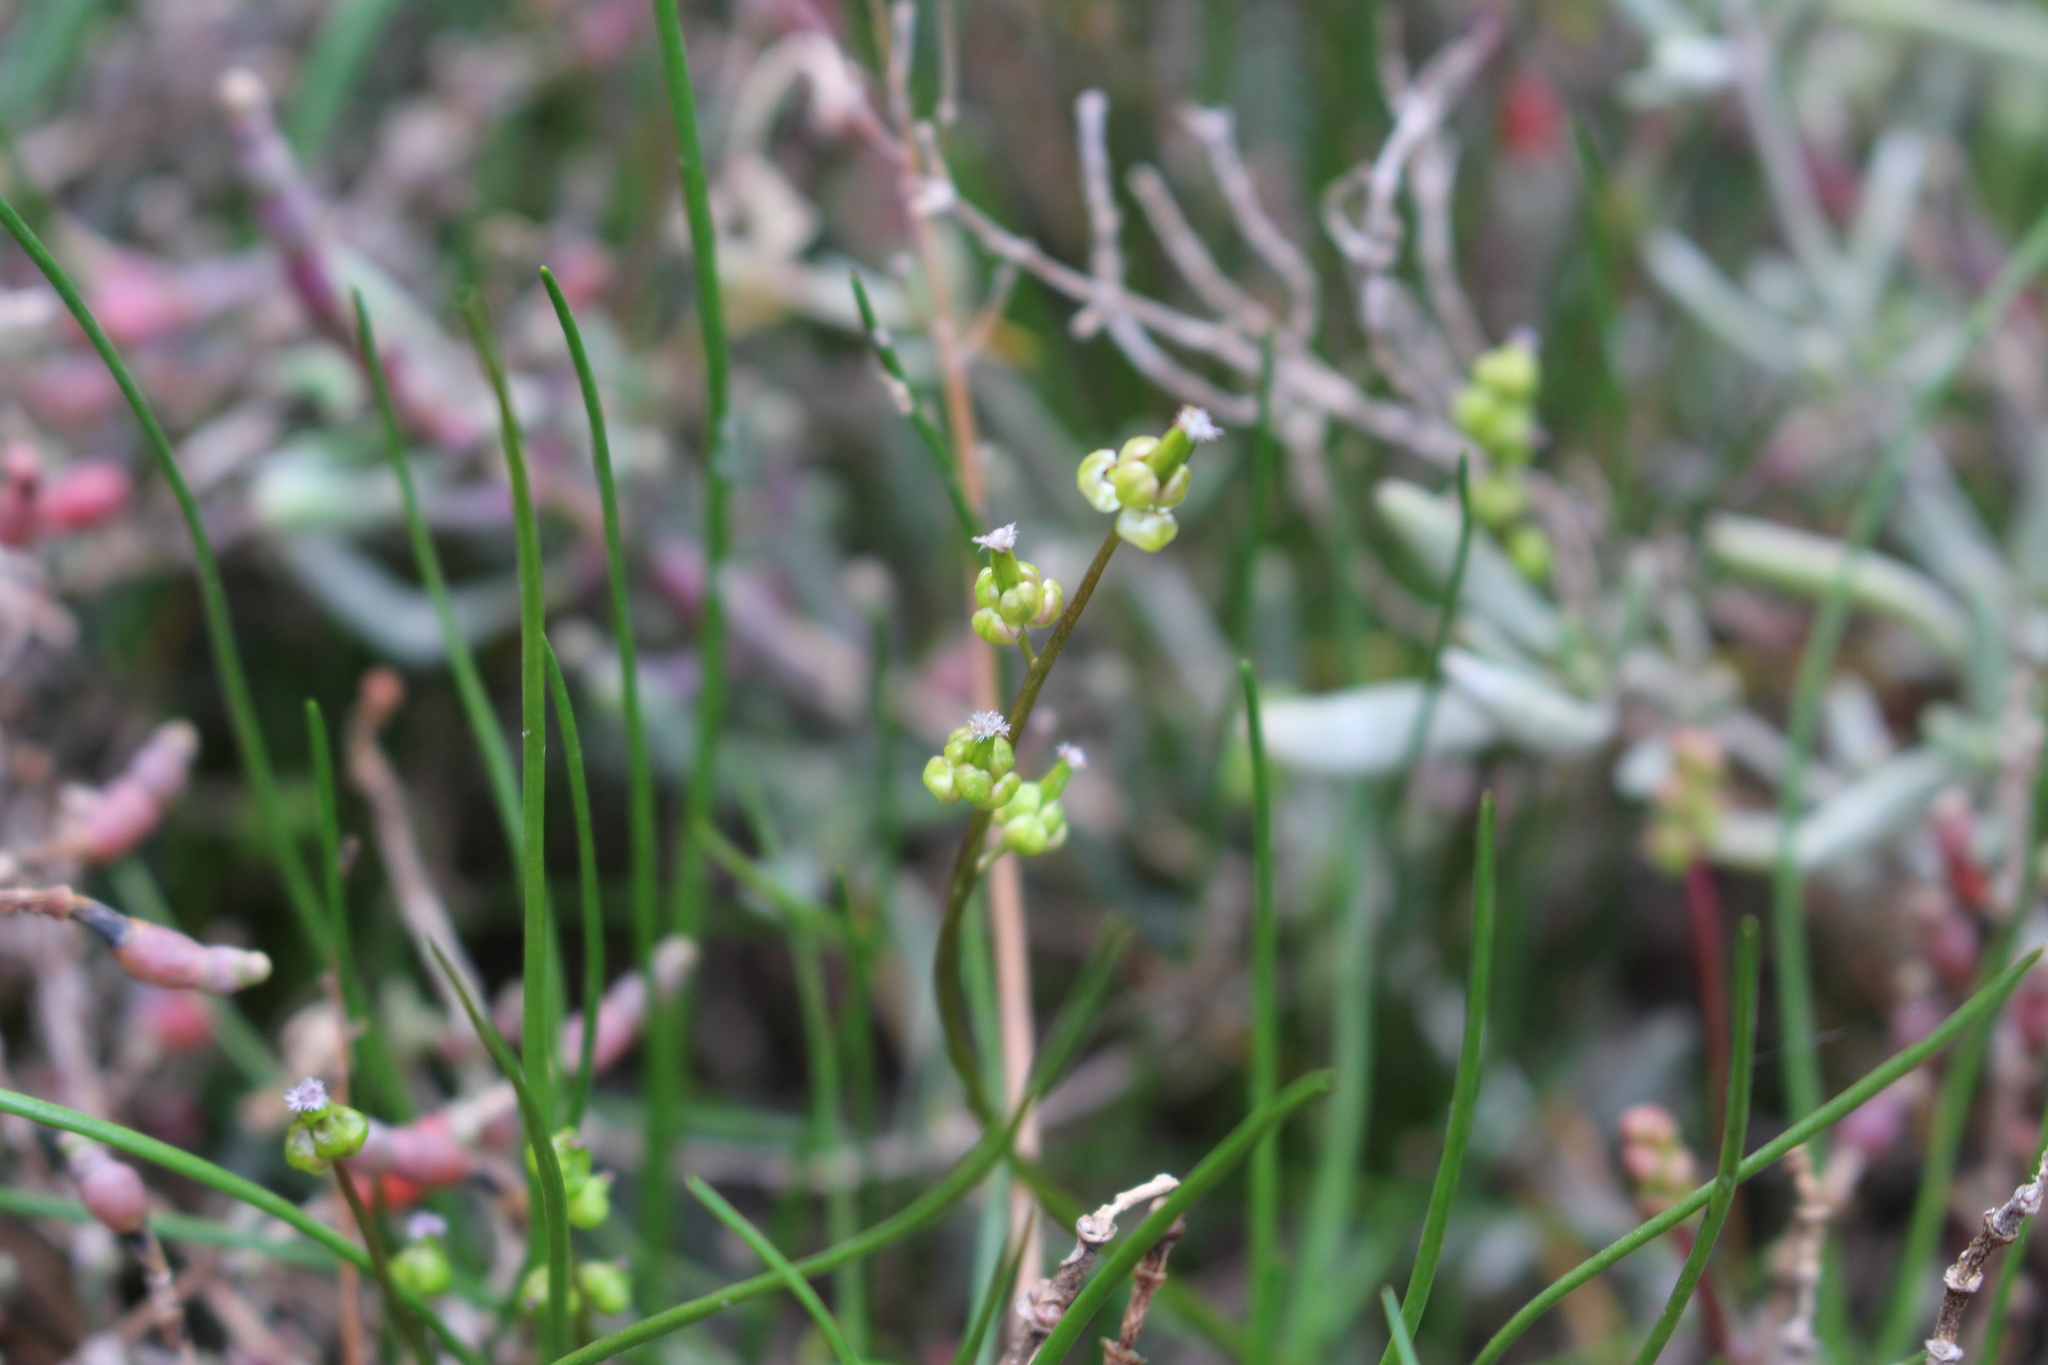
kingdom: Plantae
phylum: Tracheophyta
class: Liliopsida
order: Alismatales
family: Juncaginaceae
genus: Triglochin
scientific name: Triglochin barrelieri
